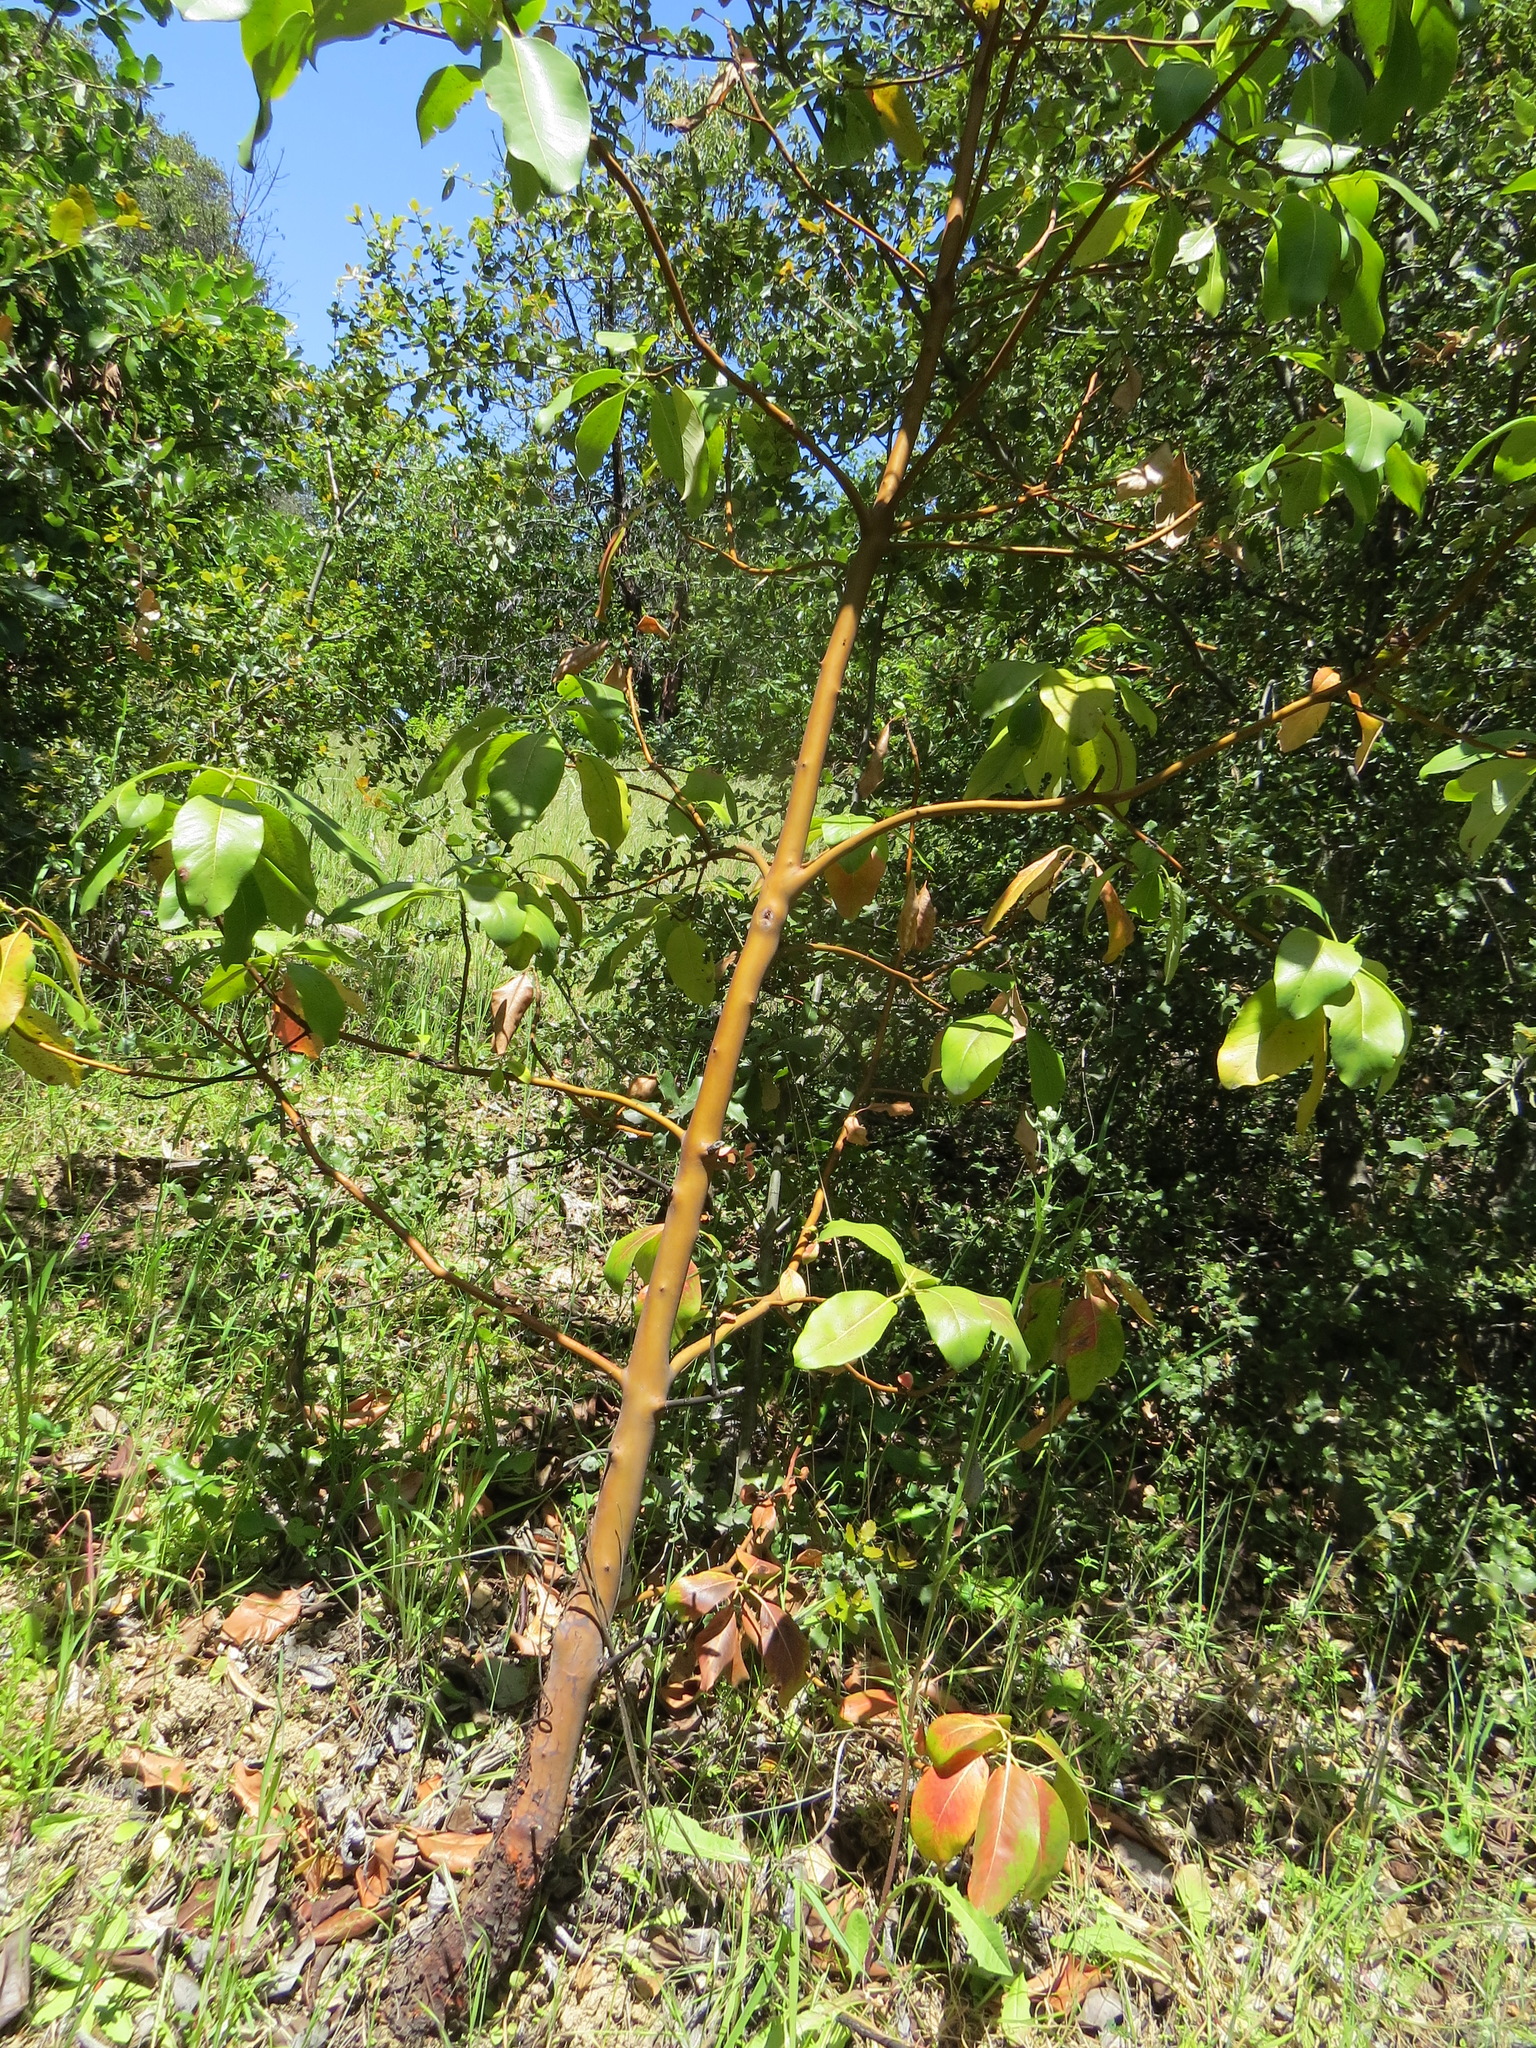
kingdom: Plantae
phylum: Tracheophyta
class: Magnoliopsida
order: Ericales
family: Ericaceae
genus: Arbutus
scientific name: Arbutus menziesii
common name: Pacific madrone
